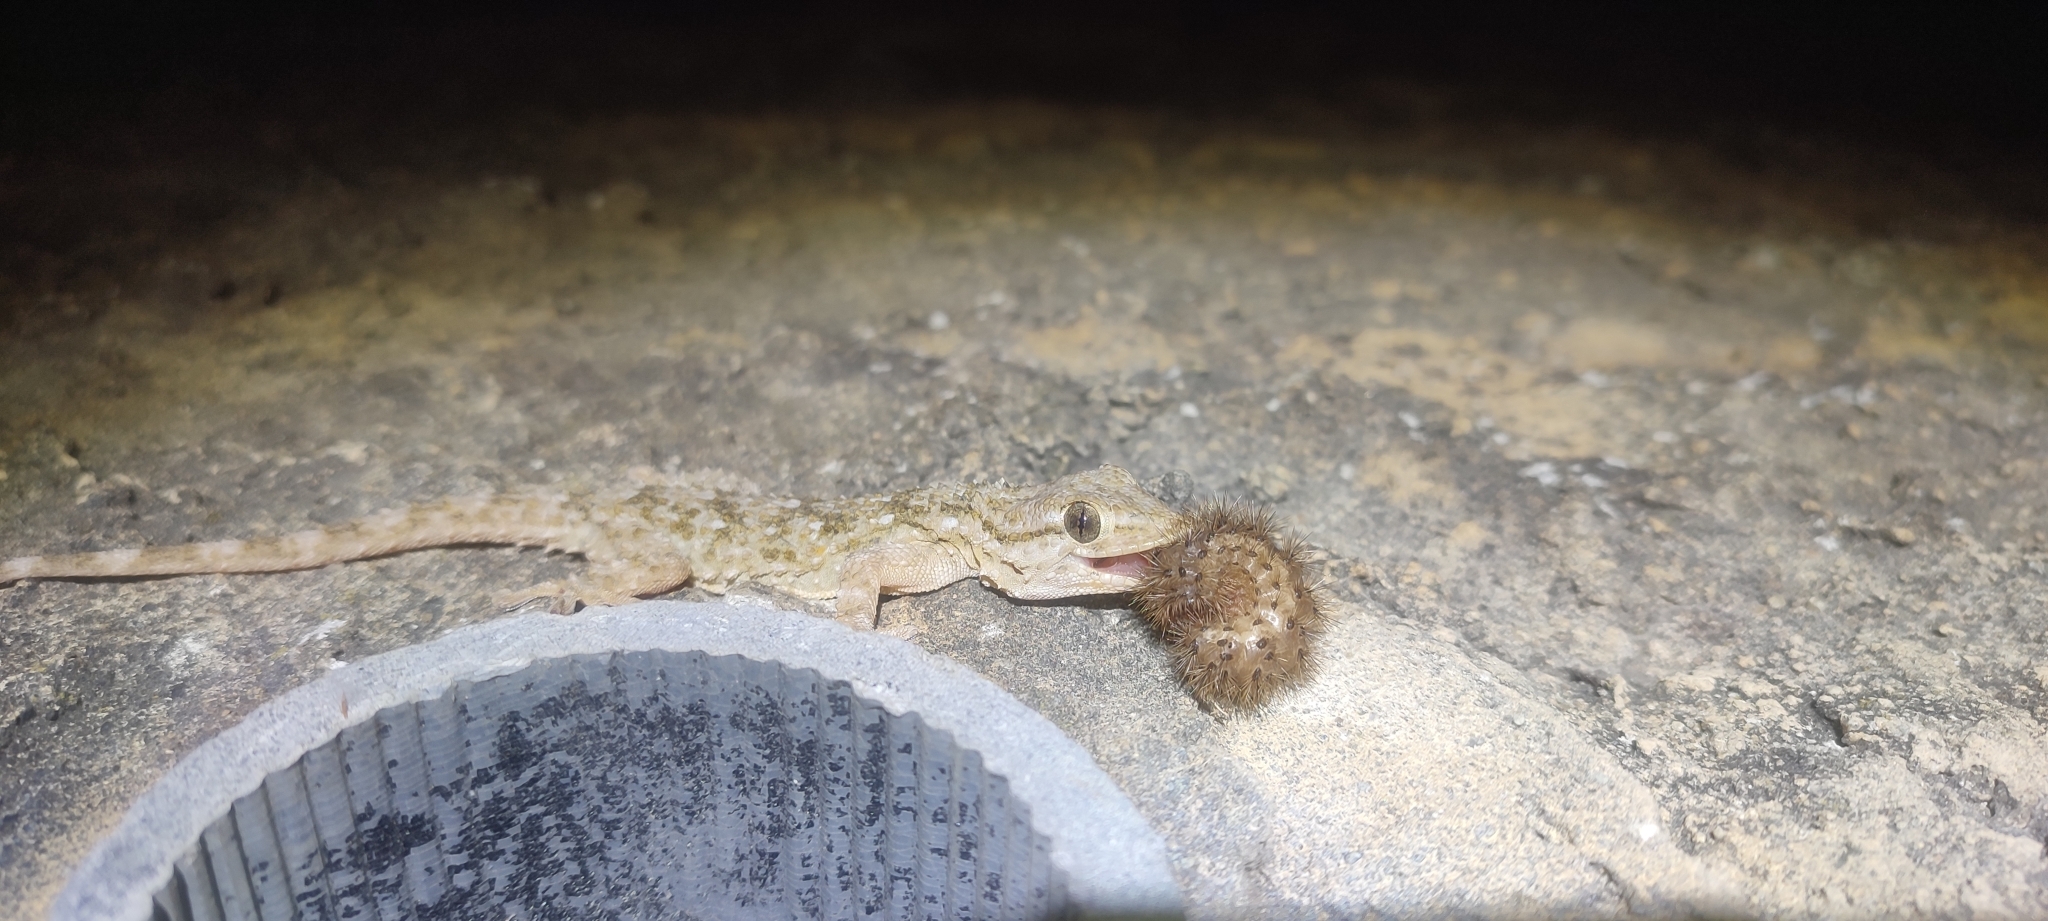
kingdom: Animalia
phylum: Chordata
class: Squamata
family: Phyllodactylidae
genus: Tarentola
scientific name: Tarentola mauritanica
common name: Moorish gecko
